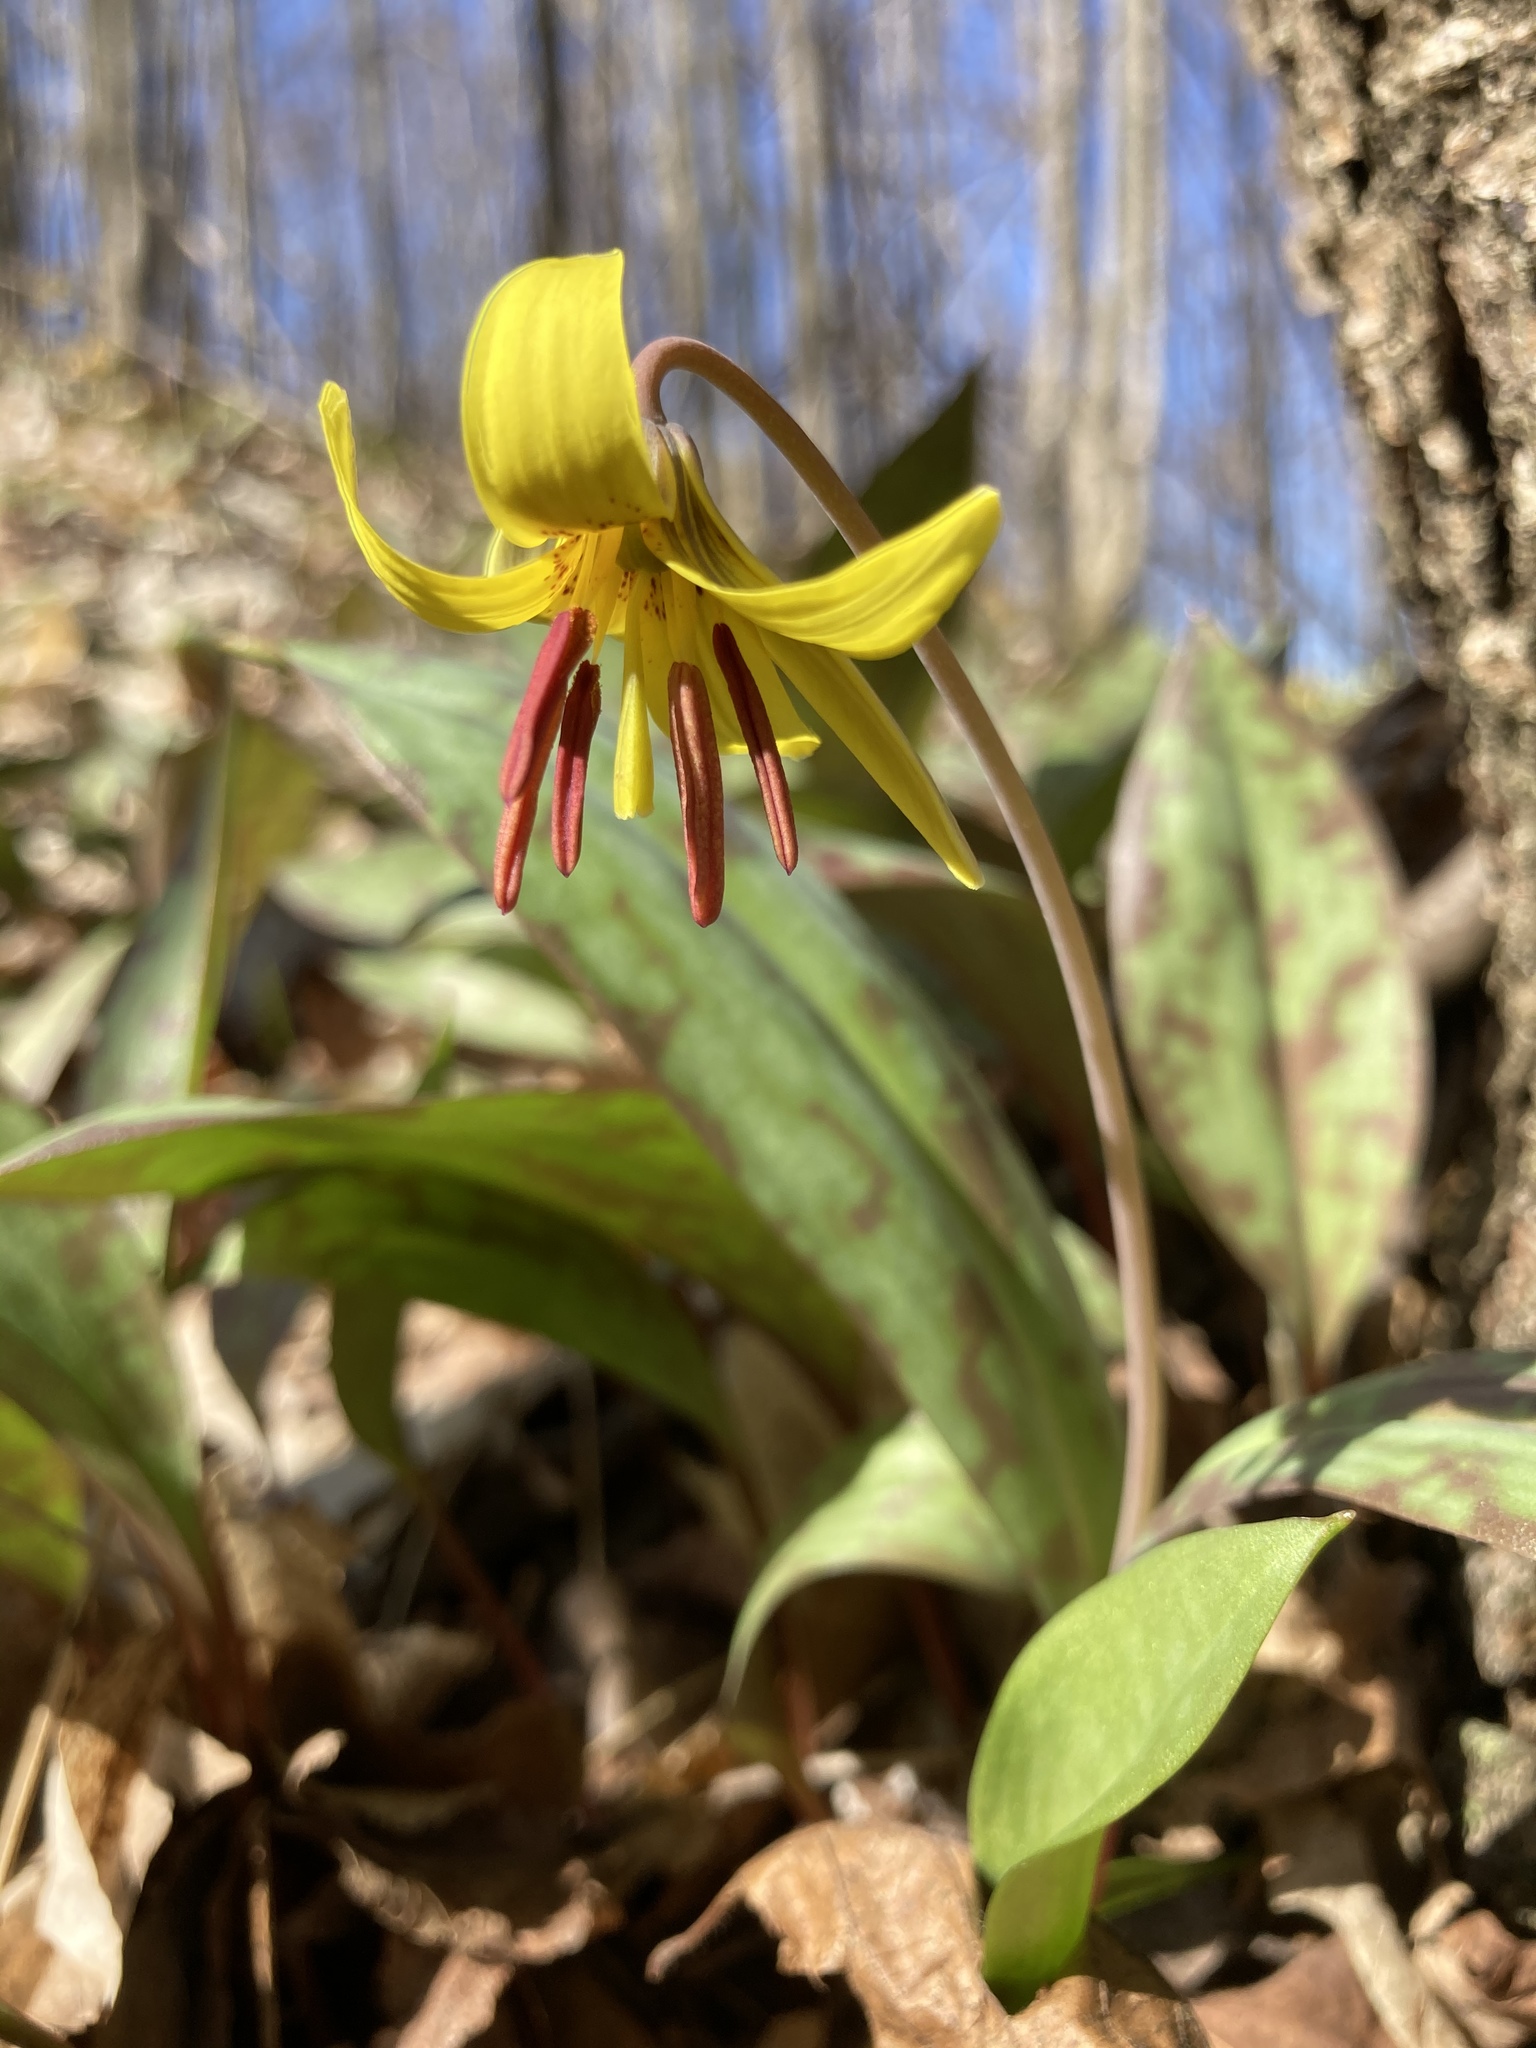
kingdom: Plantae
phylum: Tracheophyta
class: Liliopsida
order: Liliales
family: Liliaceae
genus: Erythronium
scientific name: Erythronium americanum
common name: Yellow adder's-tongue
